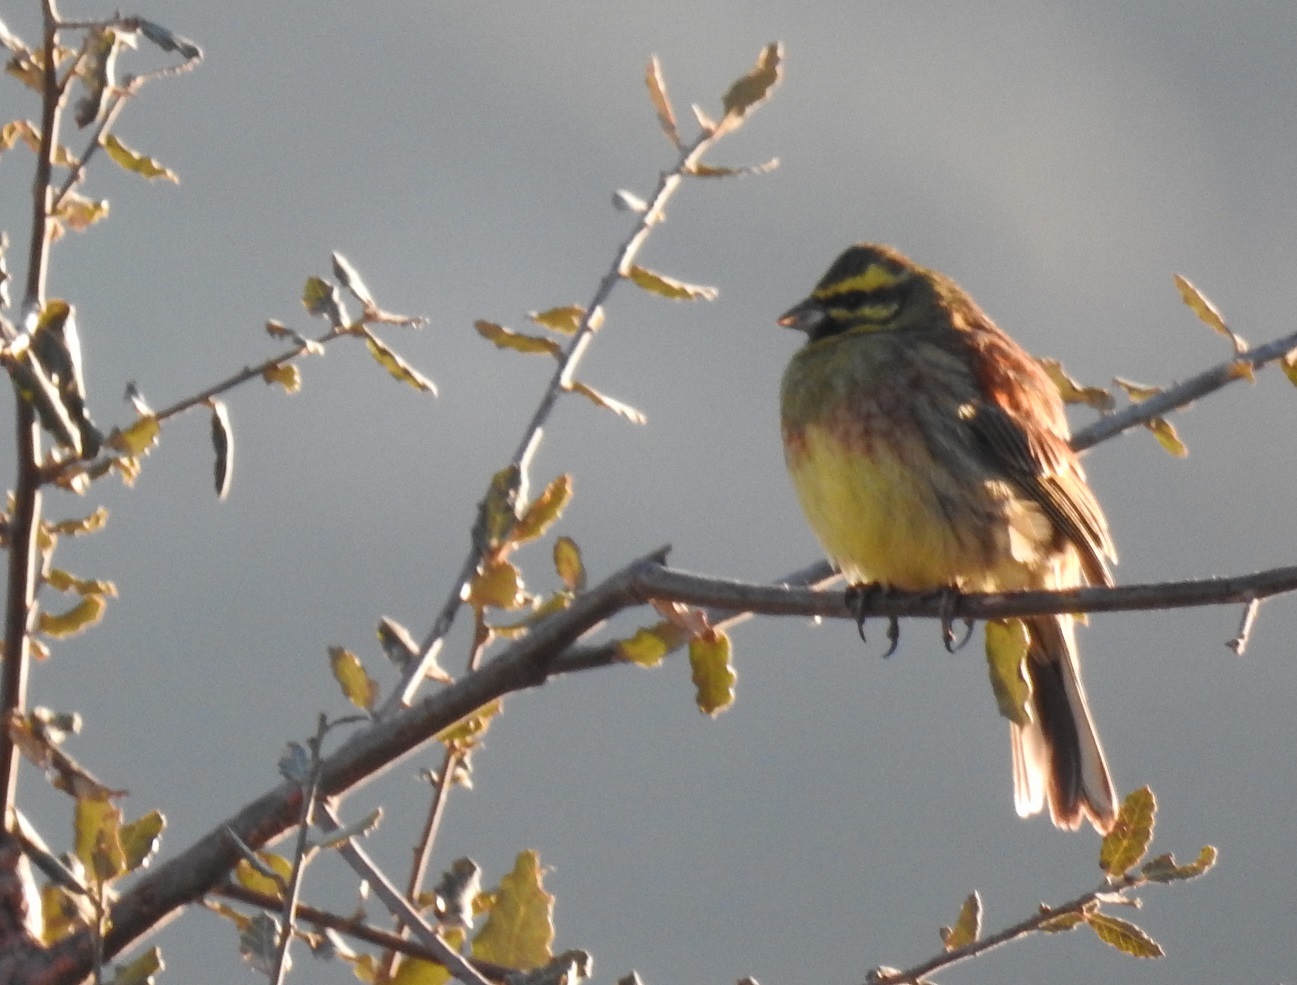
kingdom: Animalia
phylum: Chordata
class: Aves
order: Passeriformes
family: Emberizidae
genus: Emberiza
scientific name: Emberiza cirlus
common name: Cirl bunting
